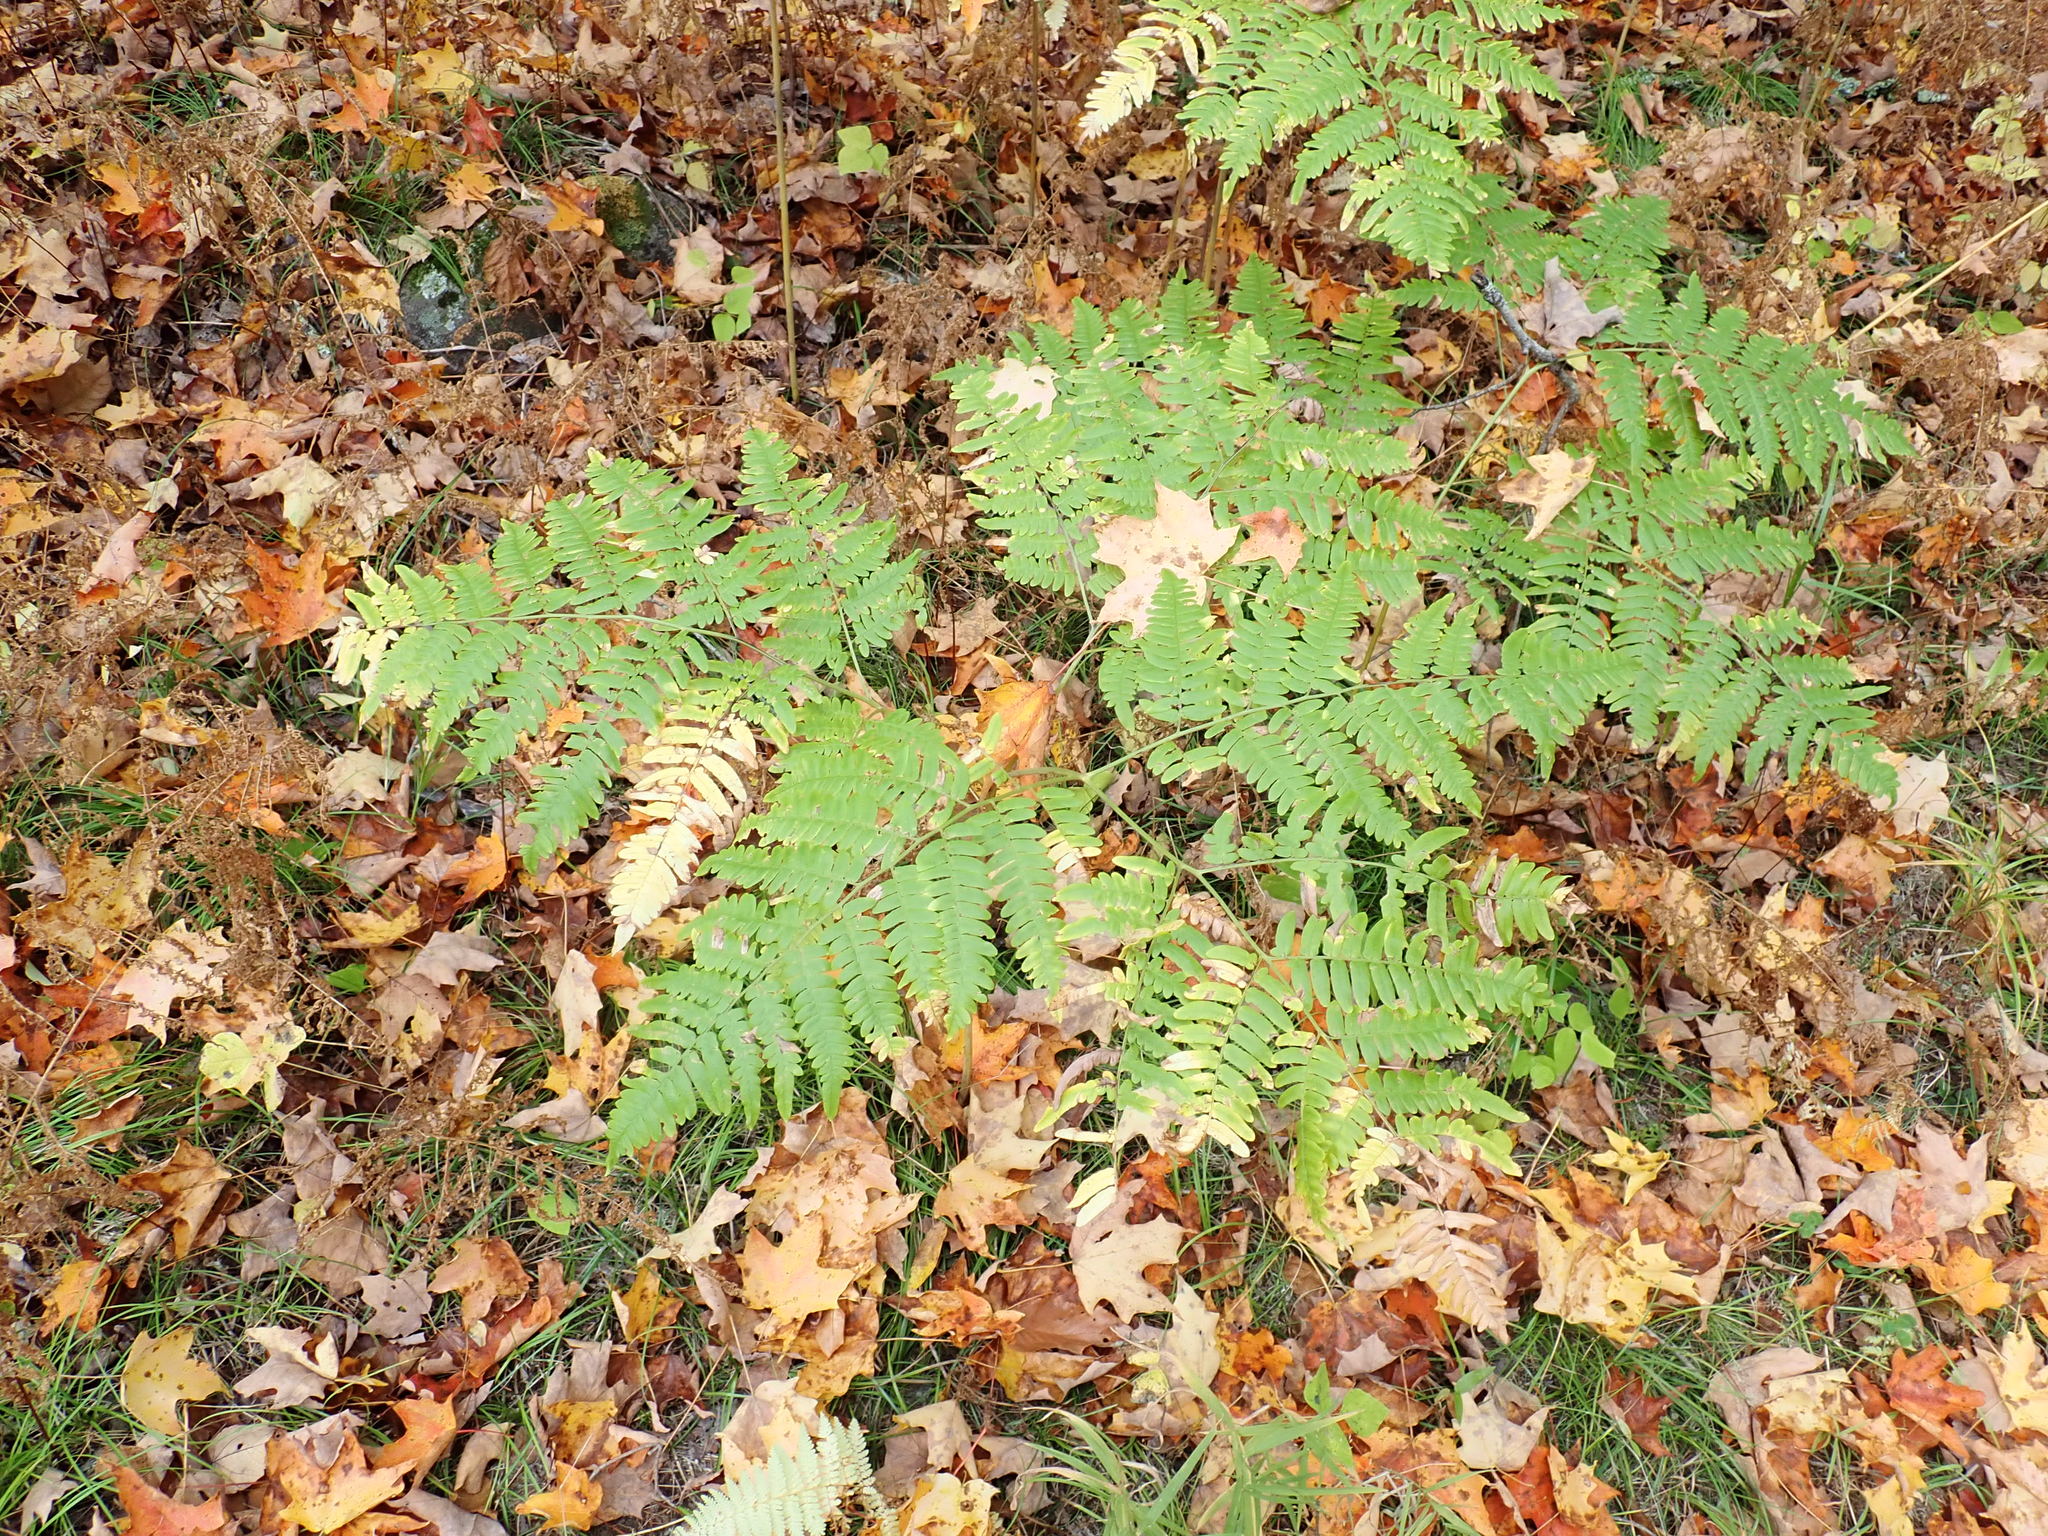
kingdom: Plantae
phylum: Tracheophyta
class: Polypodiopsida
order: Polypodiales
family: Dennstaedtiaceae
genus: Pteridium
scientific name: Pteridium aquilinum
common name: Bracken
